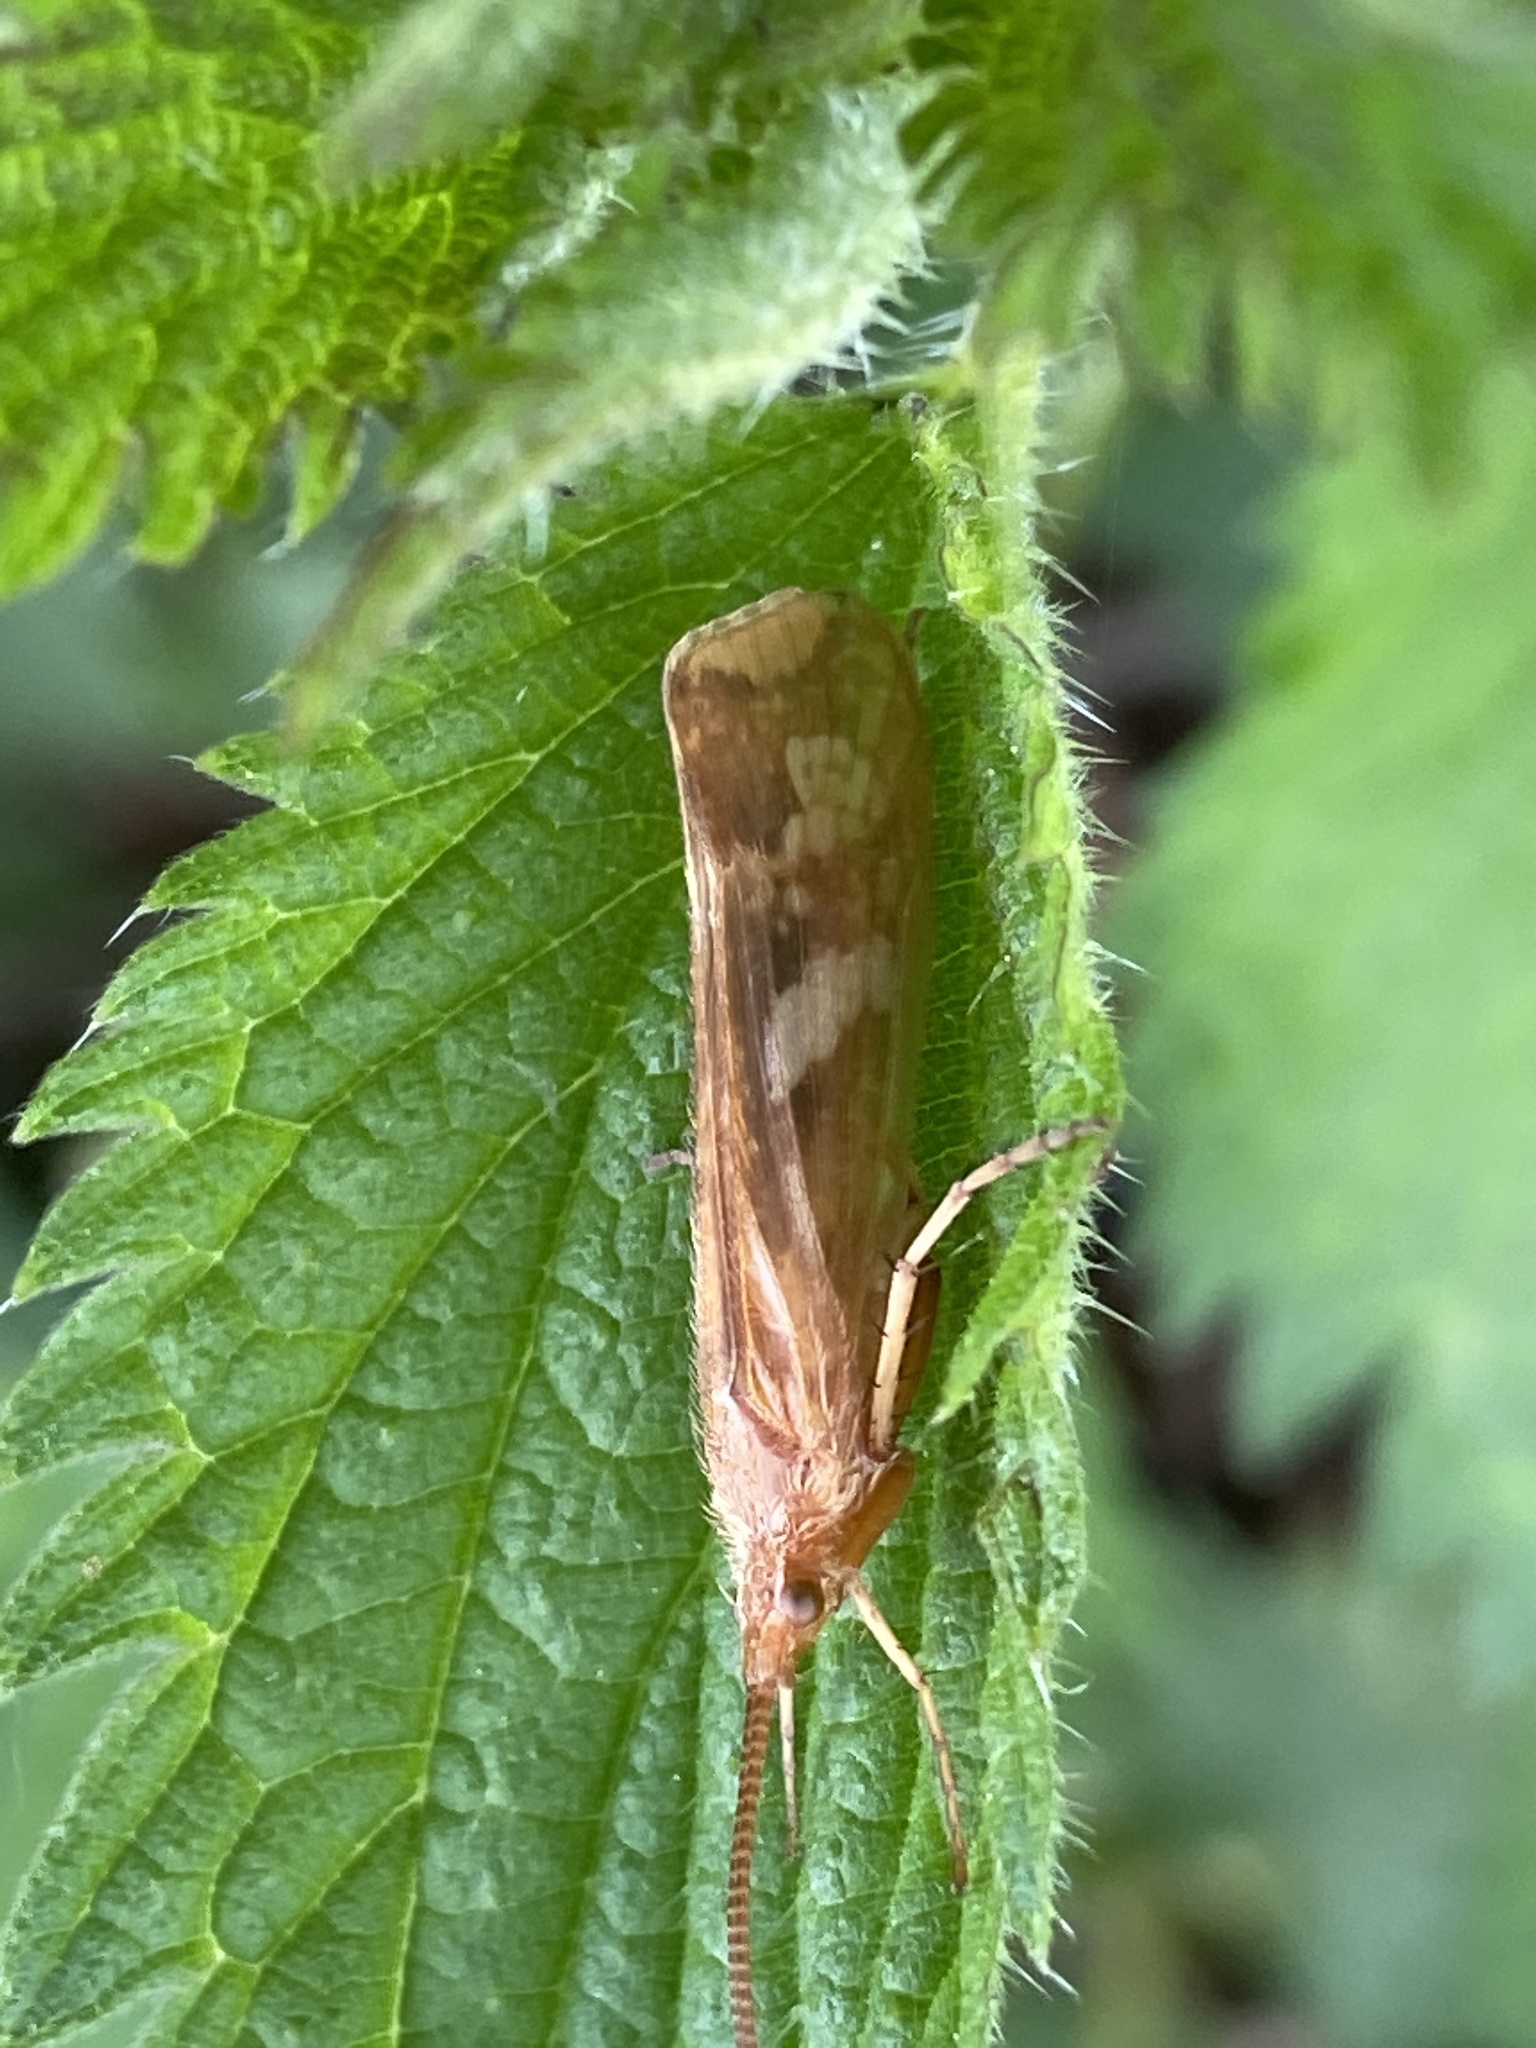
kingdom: Animalia
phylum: Arthropoda
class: Insecta
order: Trichoptera
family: Limnephilidae
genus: Limnephilus
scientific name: Limnephilus lunatus
